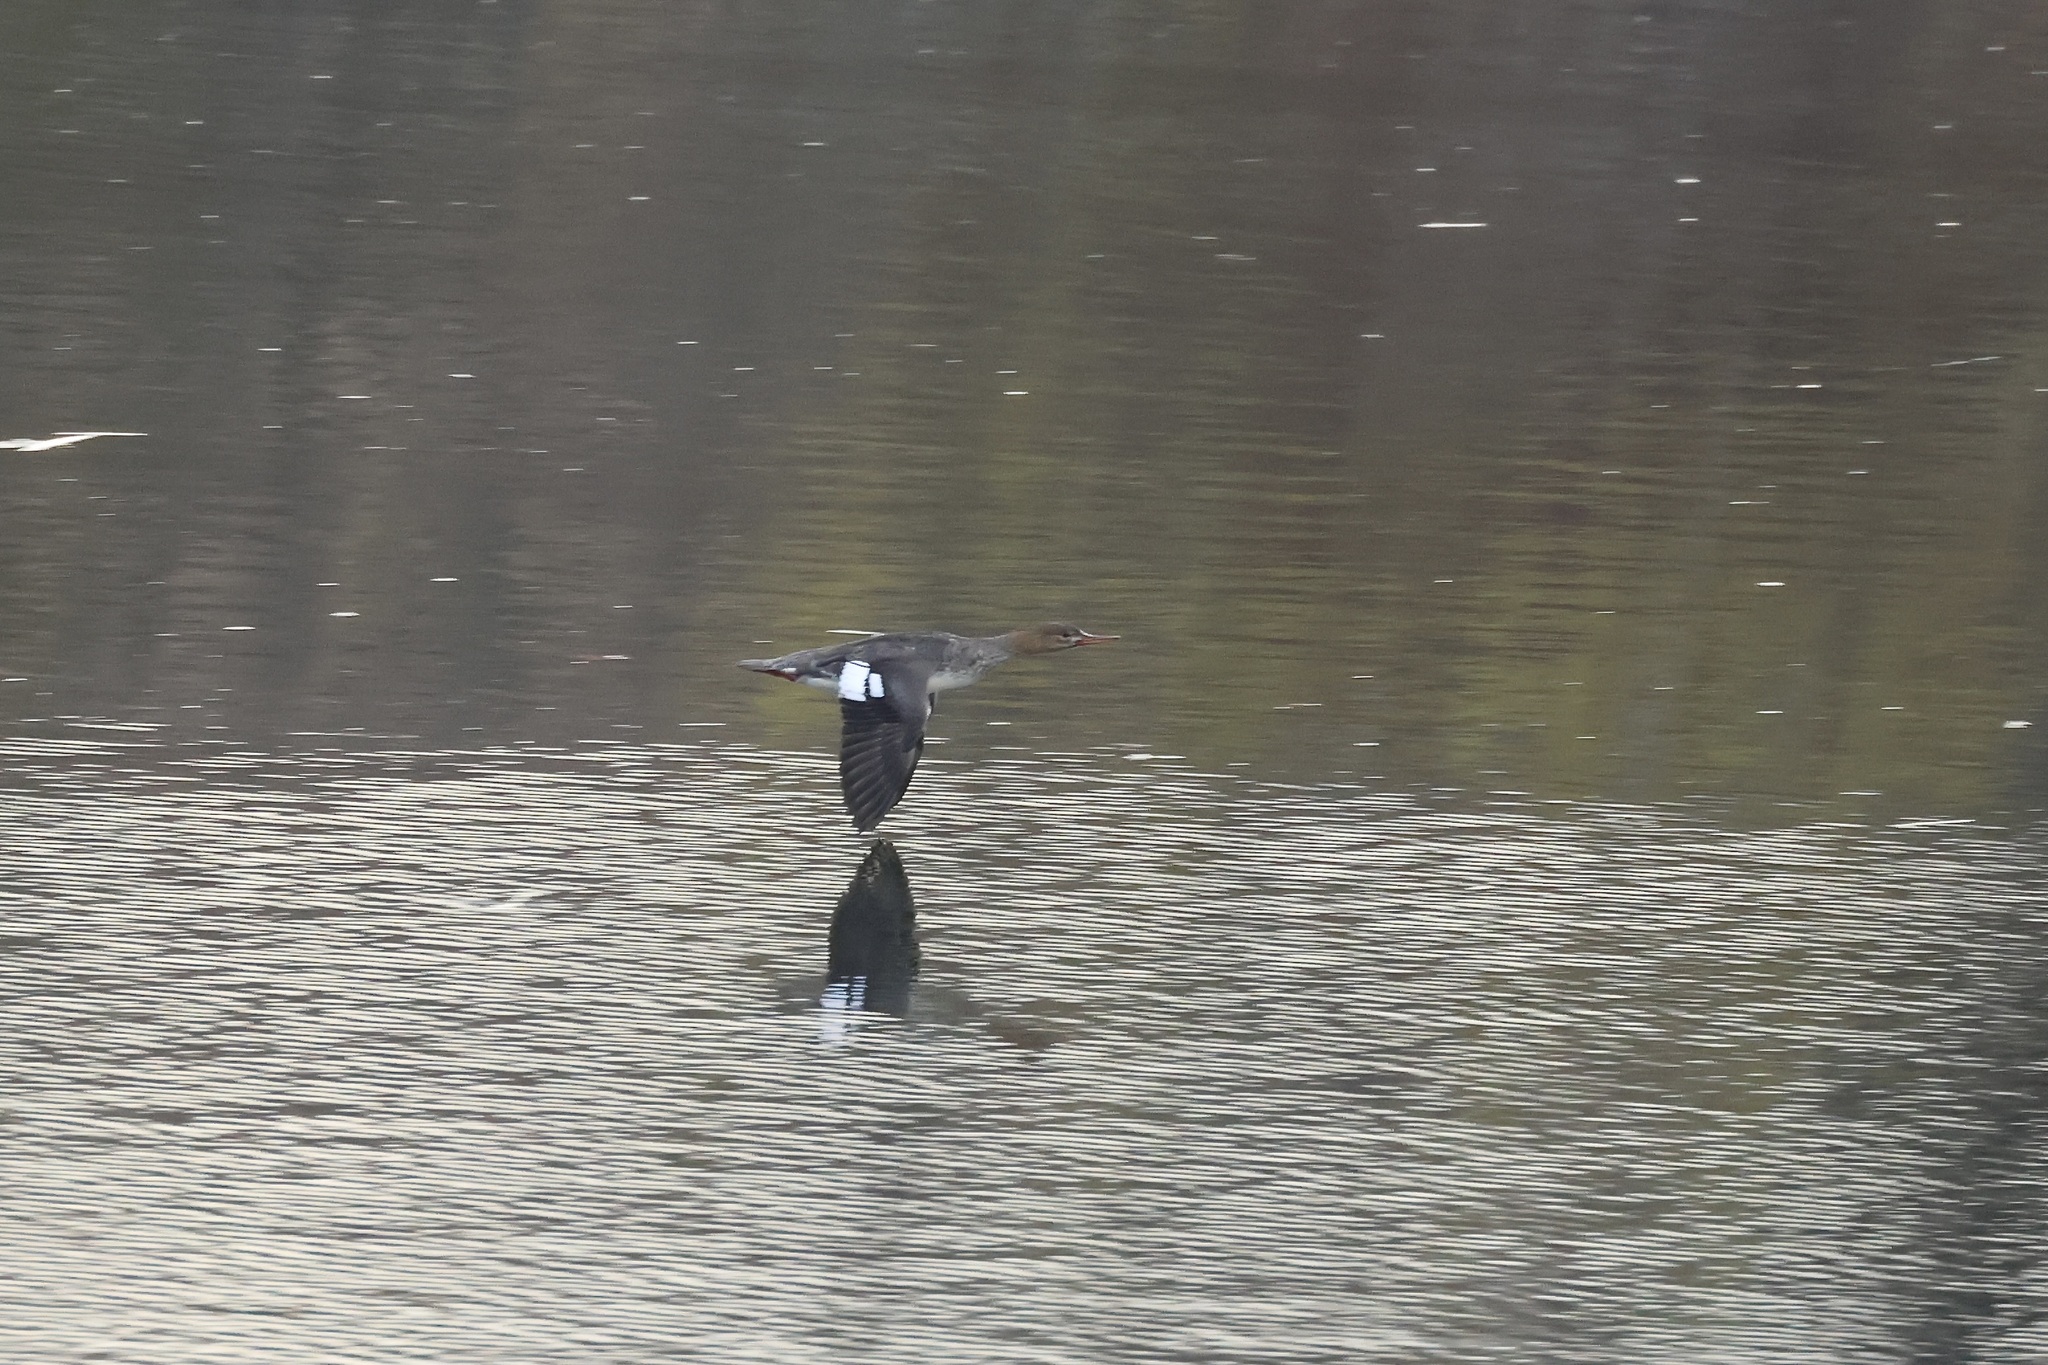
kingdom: Animalia
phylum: Chordata
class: Aves
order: Anseriformes
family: Anatidae
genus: Mergus
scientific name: Mergus serrator
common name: Red-breasted merganser
